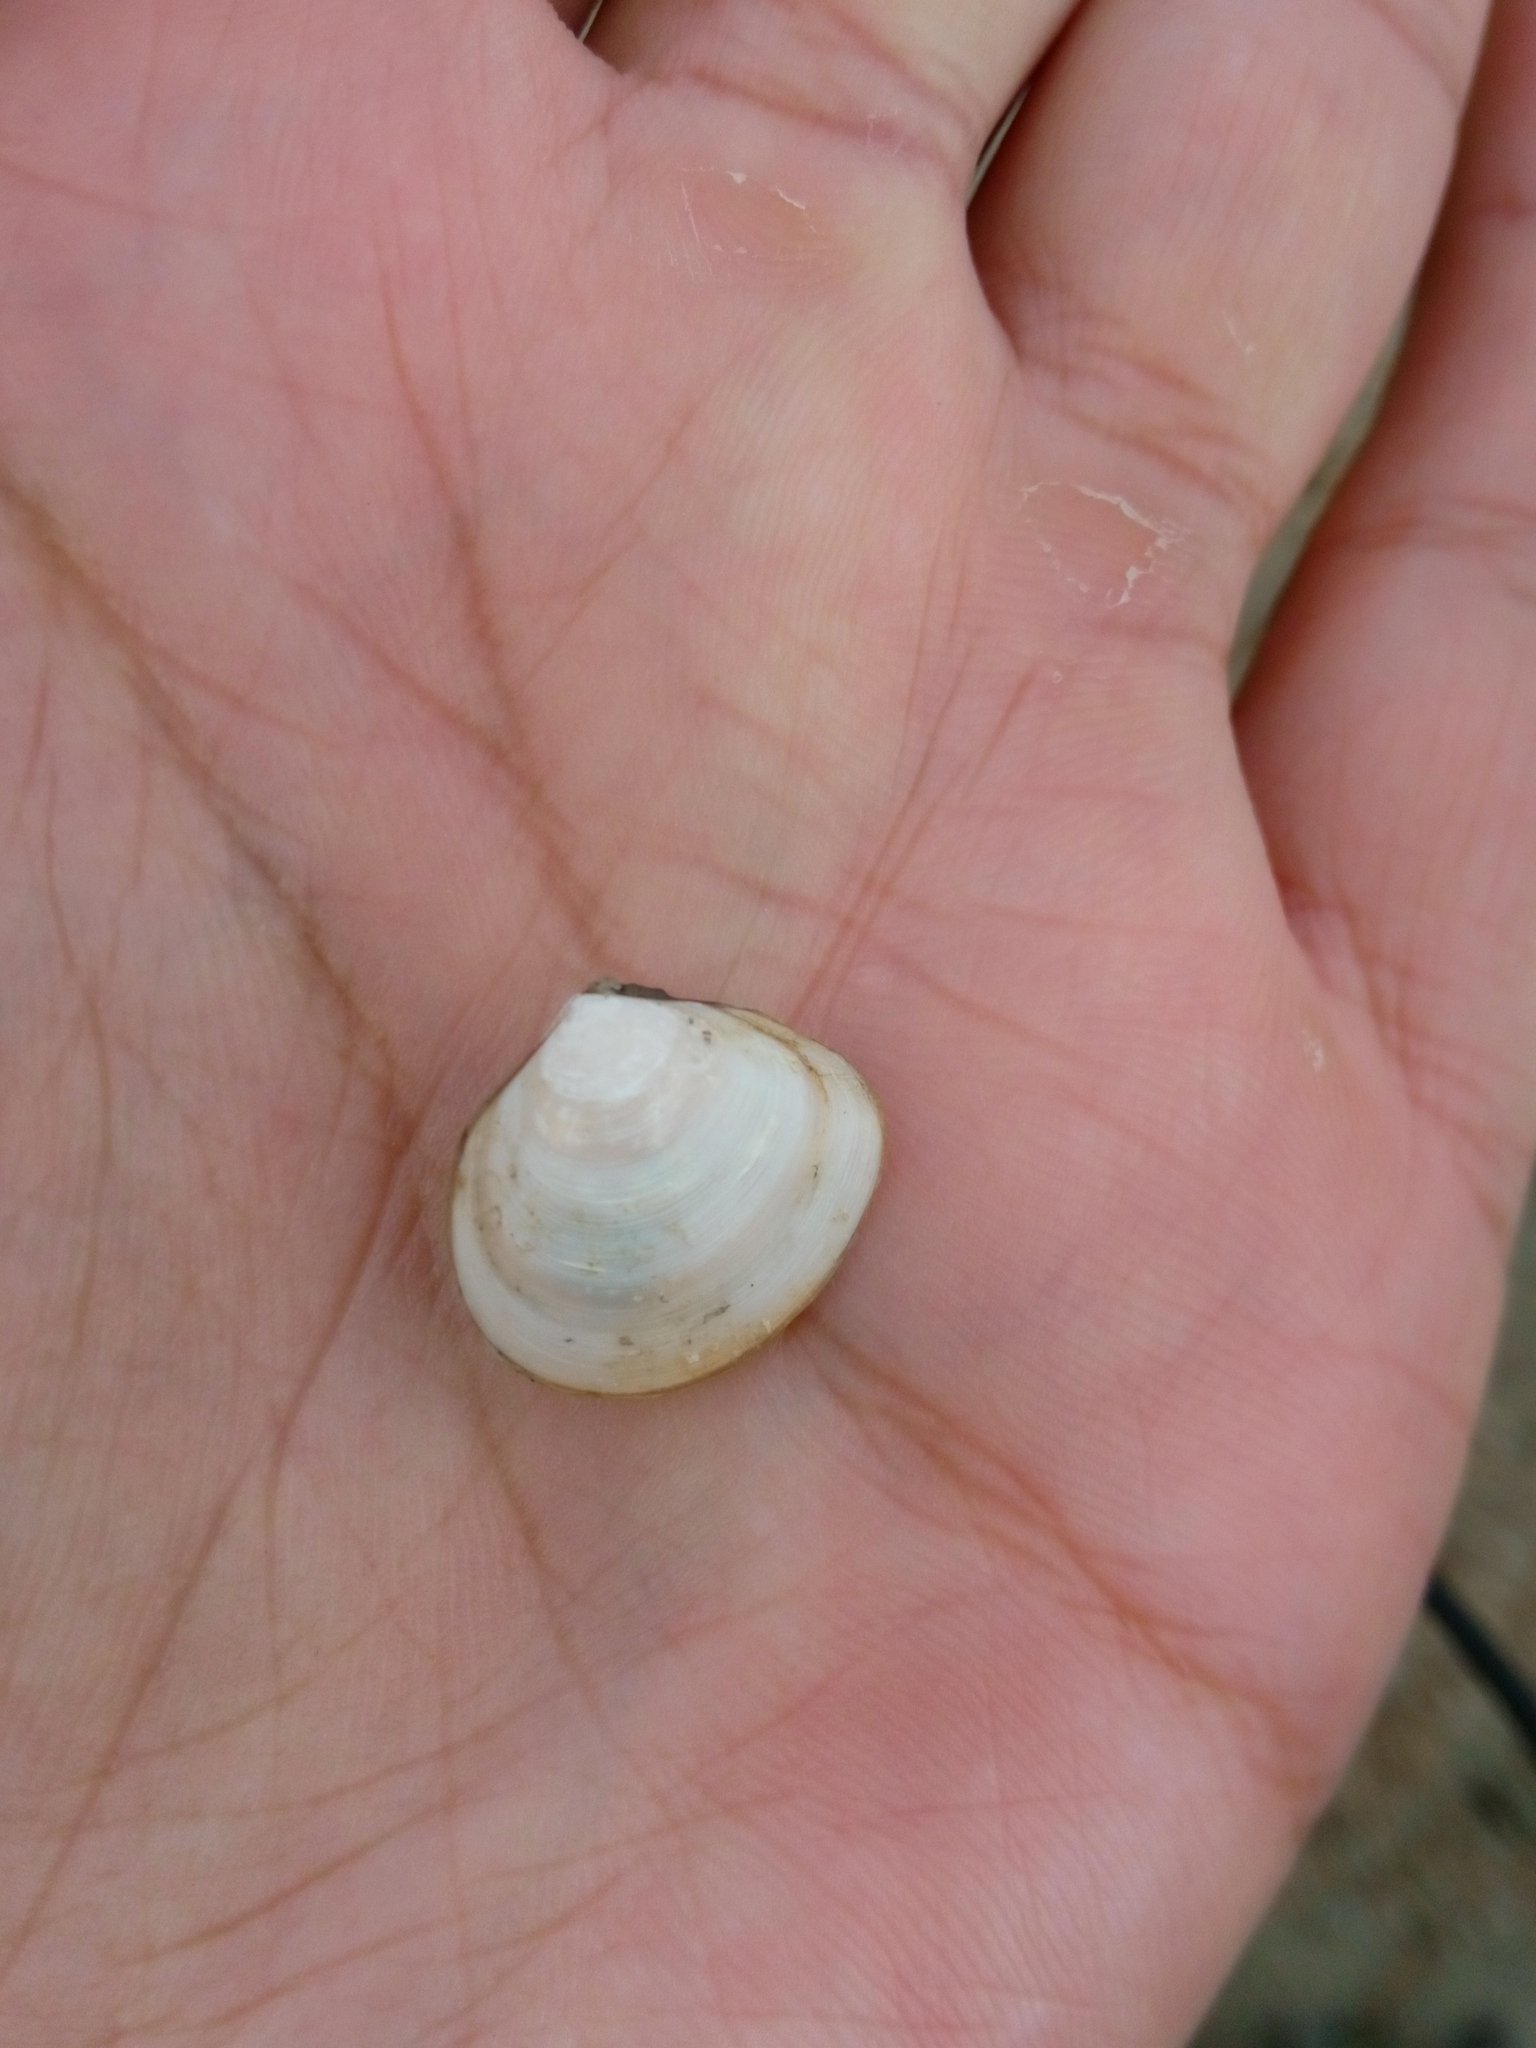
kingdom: Animalia
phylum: Mollusca
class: Bivalvia
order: Cardiida
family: Tellinidae
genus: Macoma
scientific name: Macoma balthica
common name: Baltic tellin
